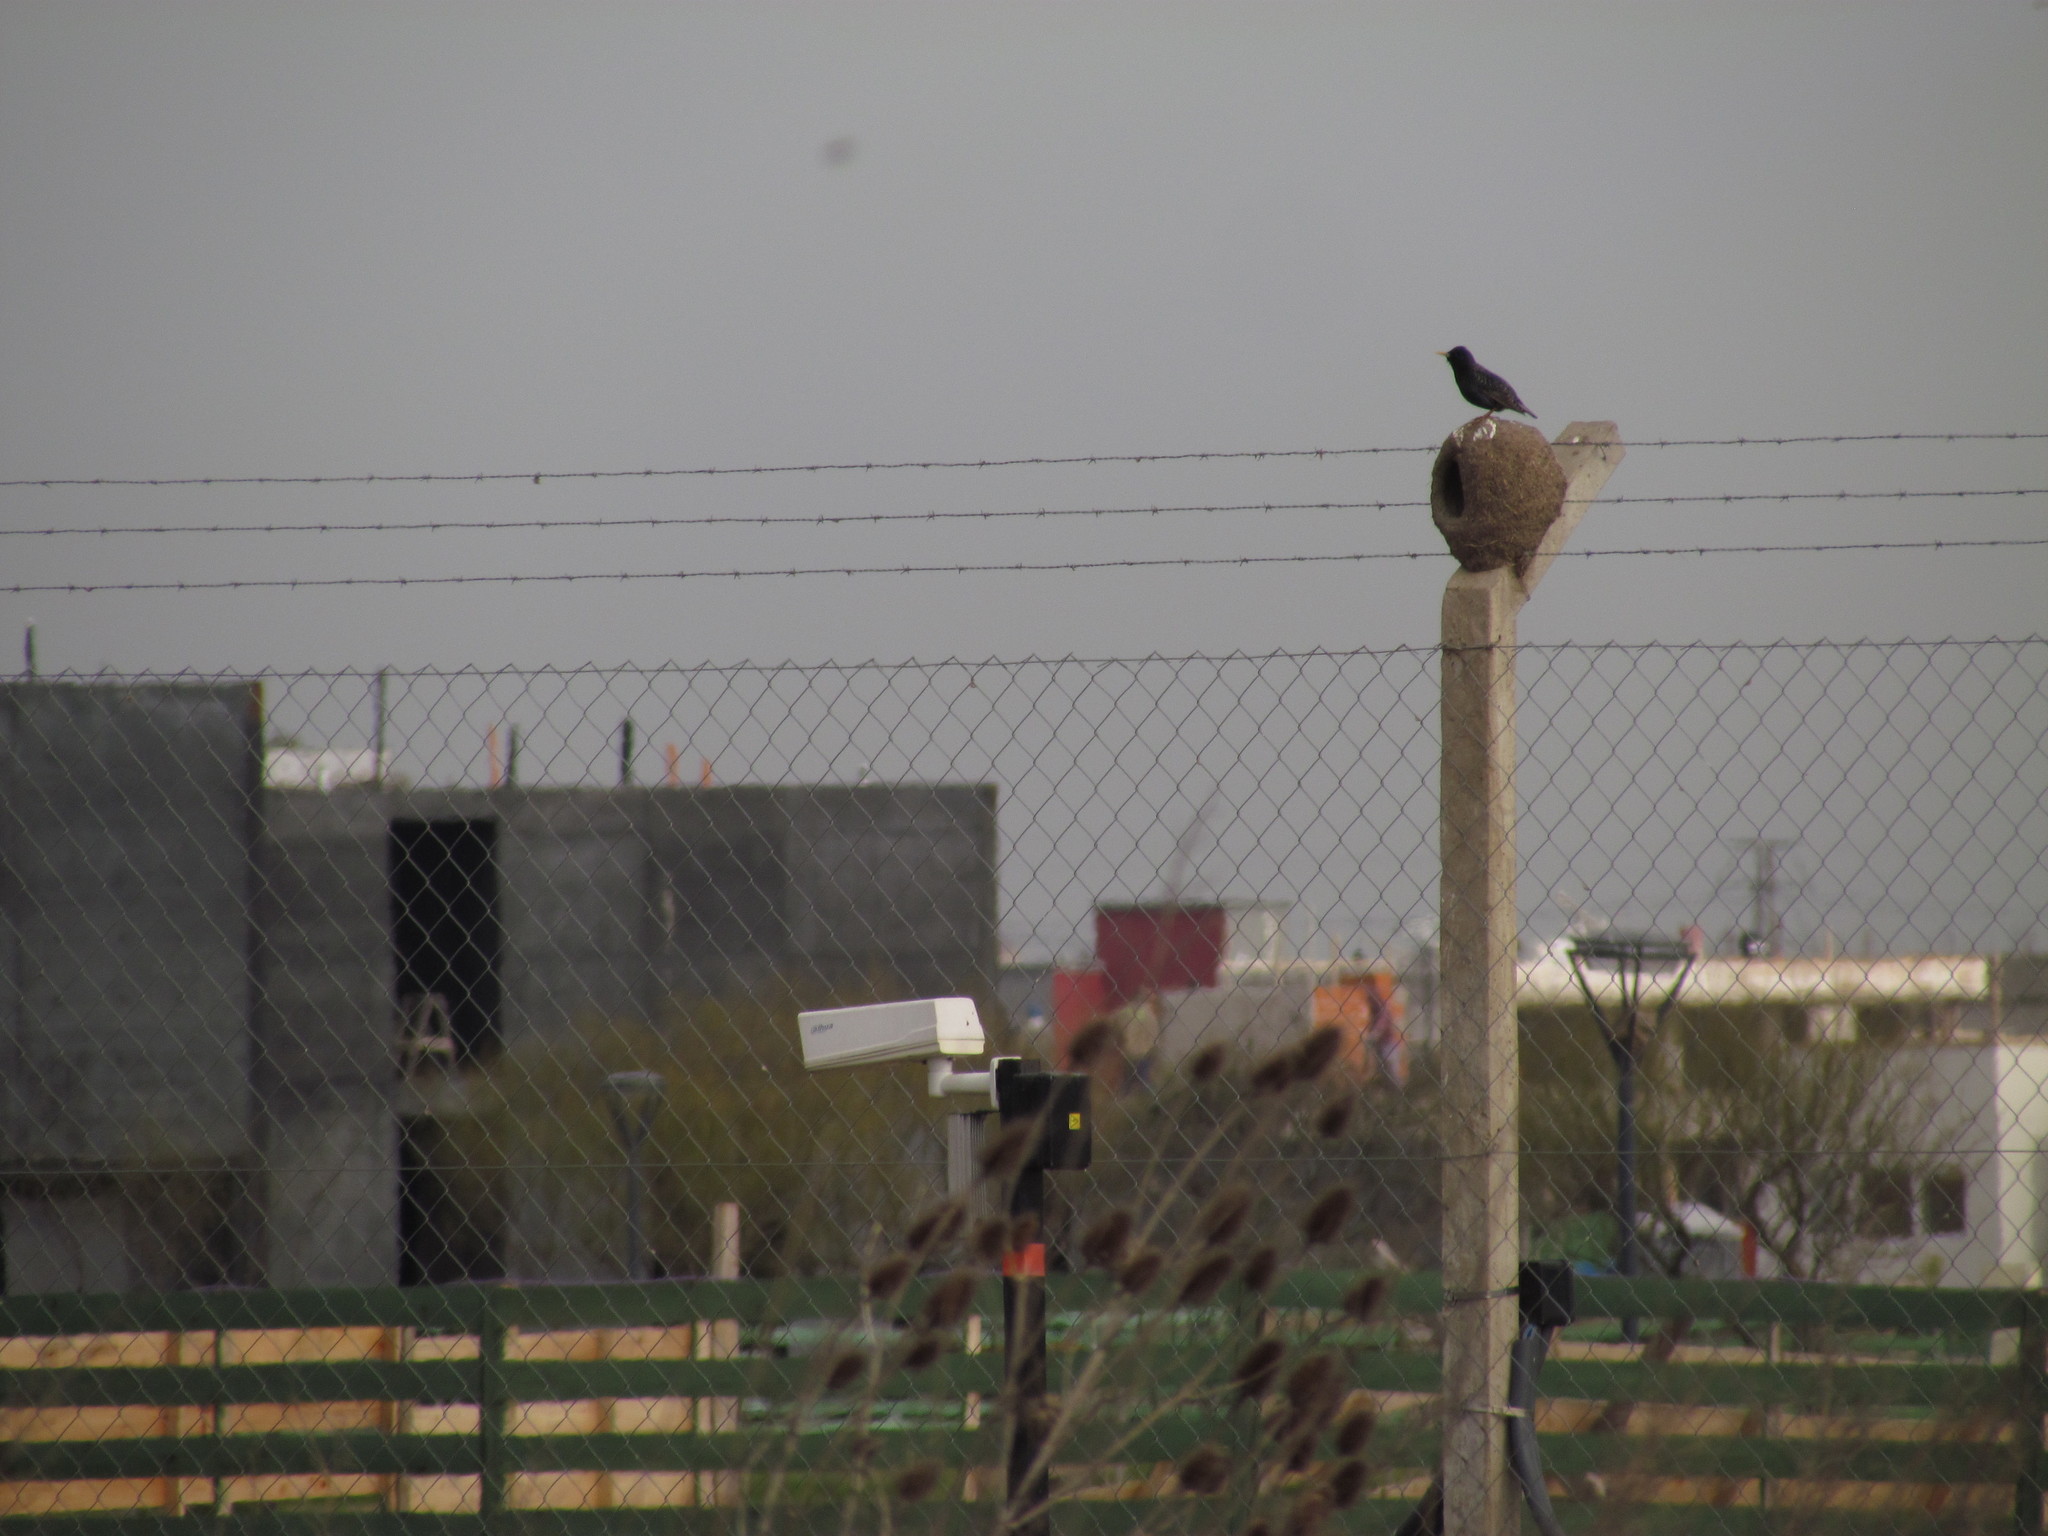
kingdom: Animalia
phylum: Chordata
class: Aves
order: Passeriformes
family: Sturnidae
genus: Sturnus
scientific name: Sturnus vulgaris
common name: Common starling
